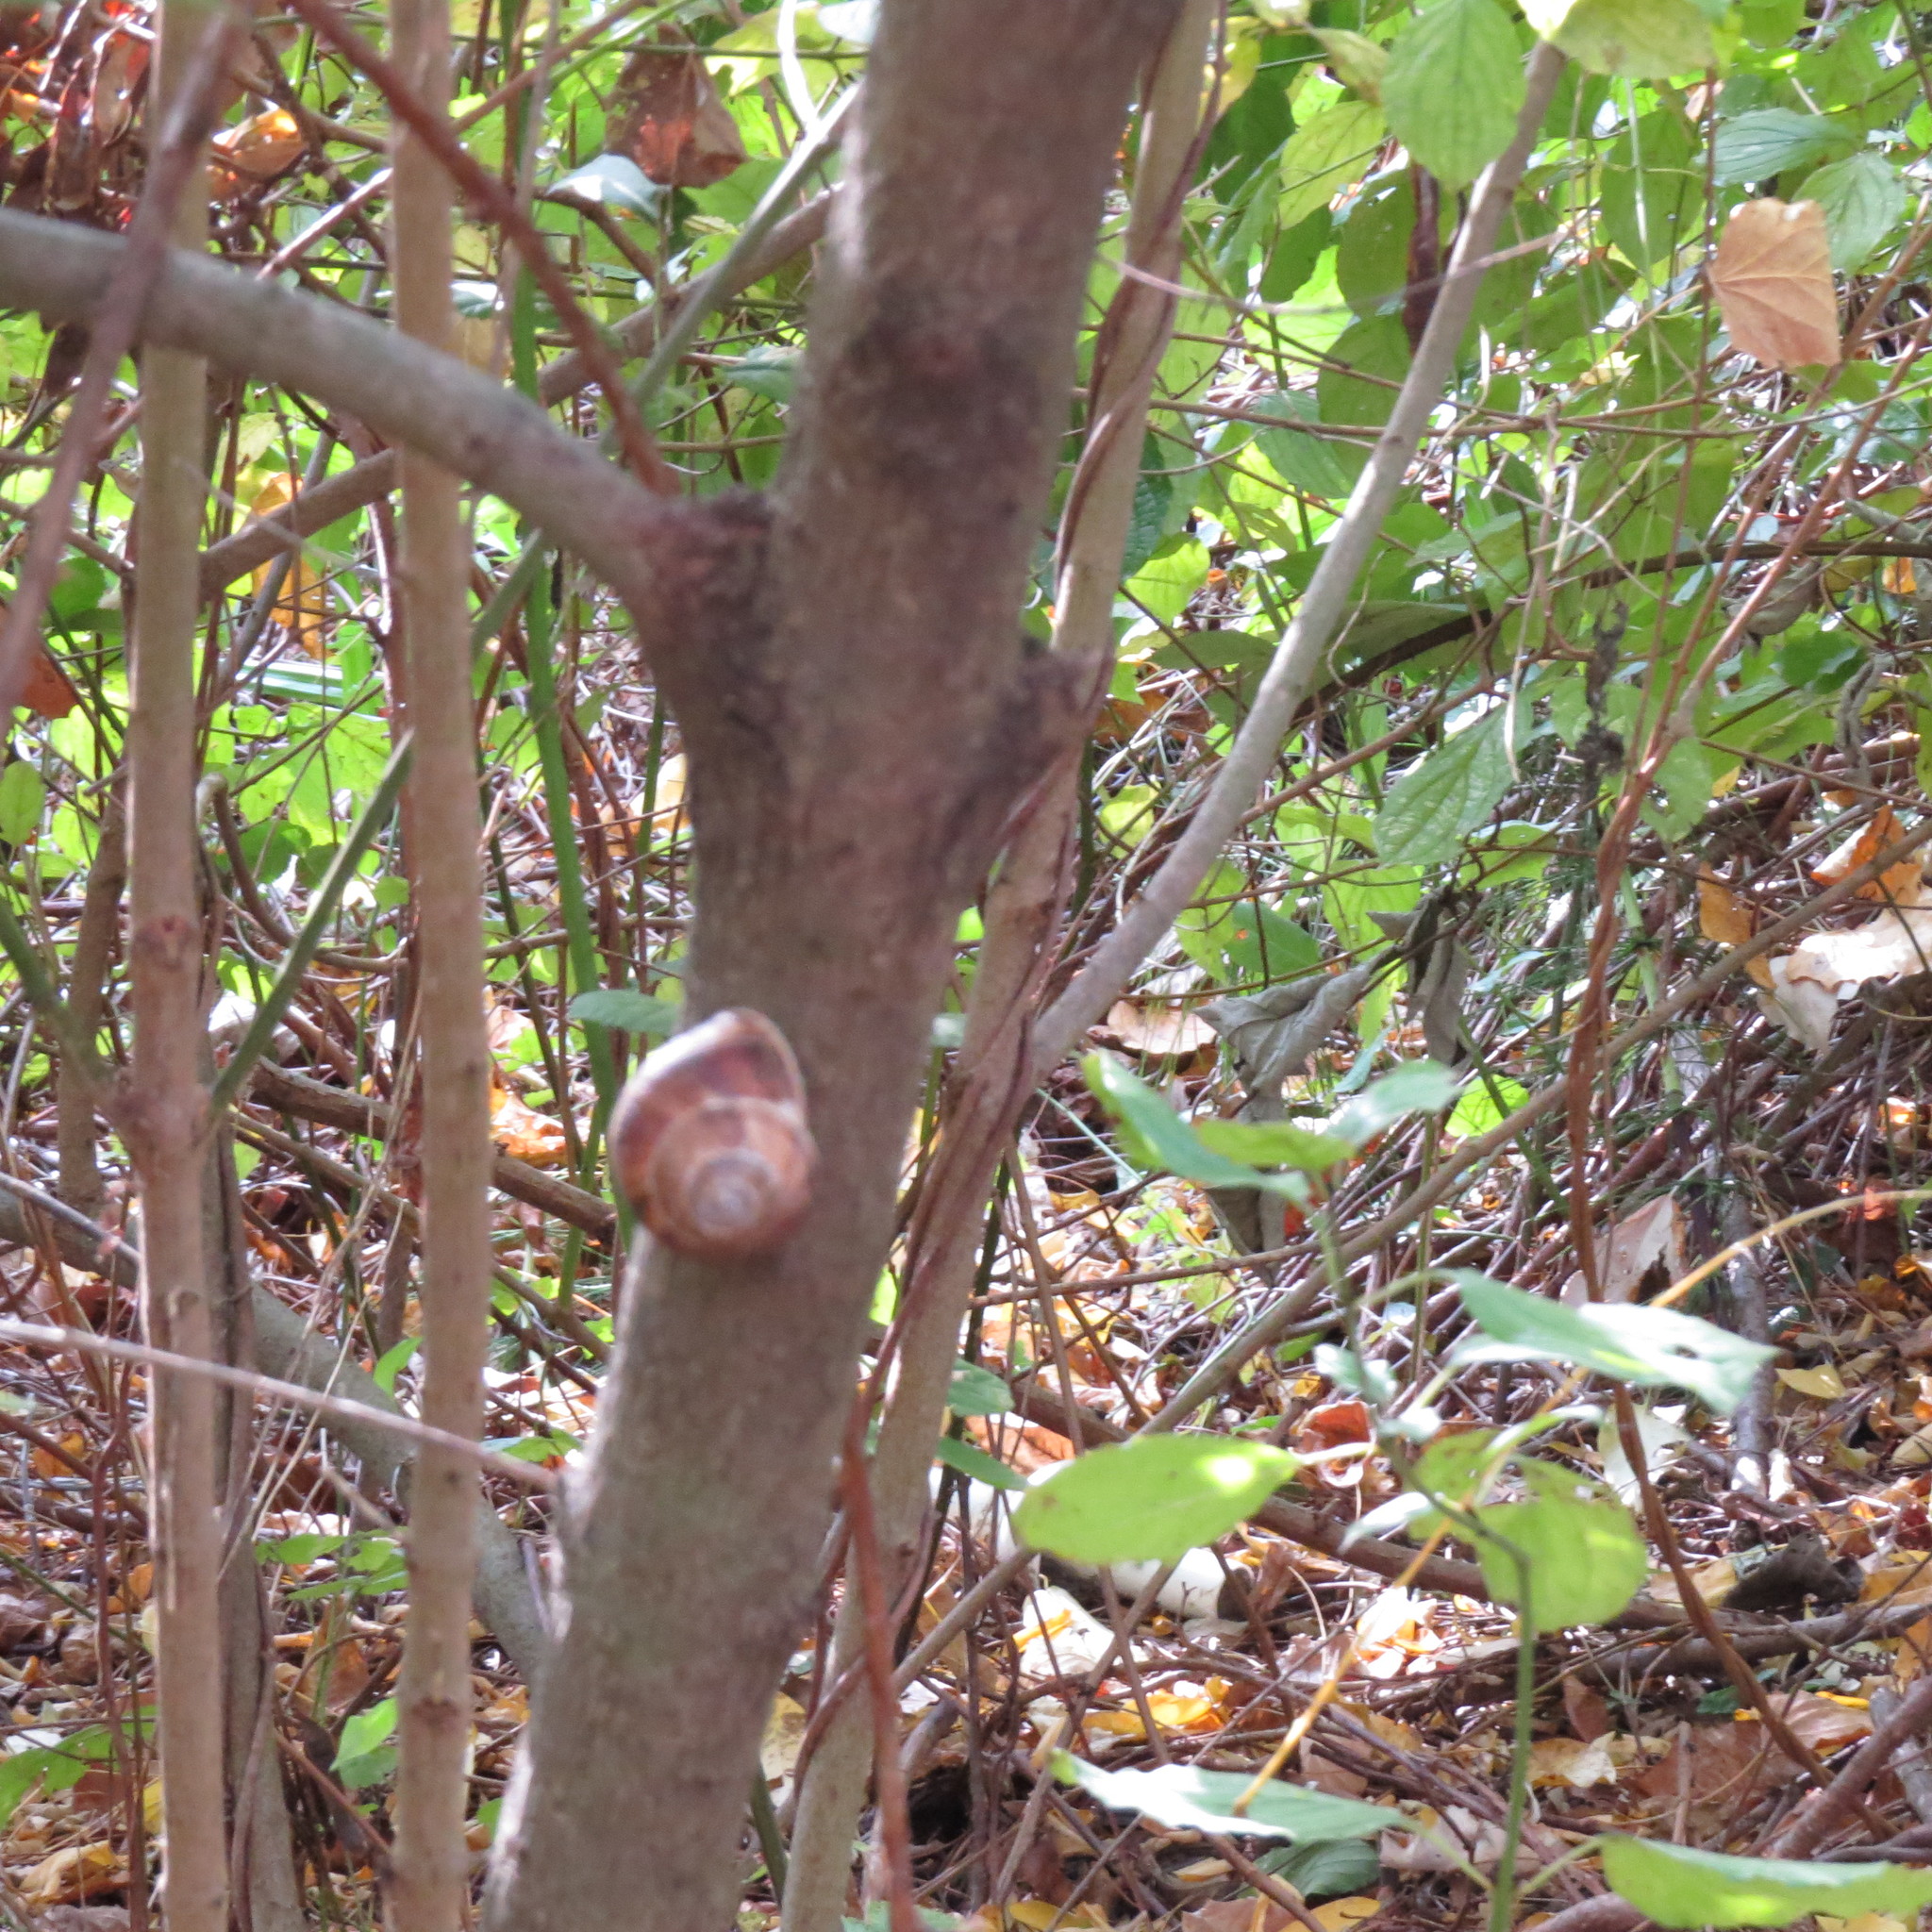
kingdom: Animalia
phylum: Mollusca
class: Gastropoda
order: Stylommatophora
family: Helicidae
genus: Helix
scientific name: Helix lucorum
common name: Turkish snail
